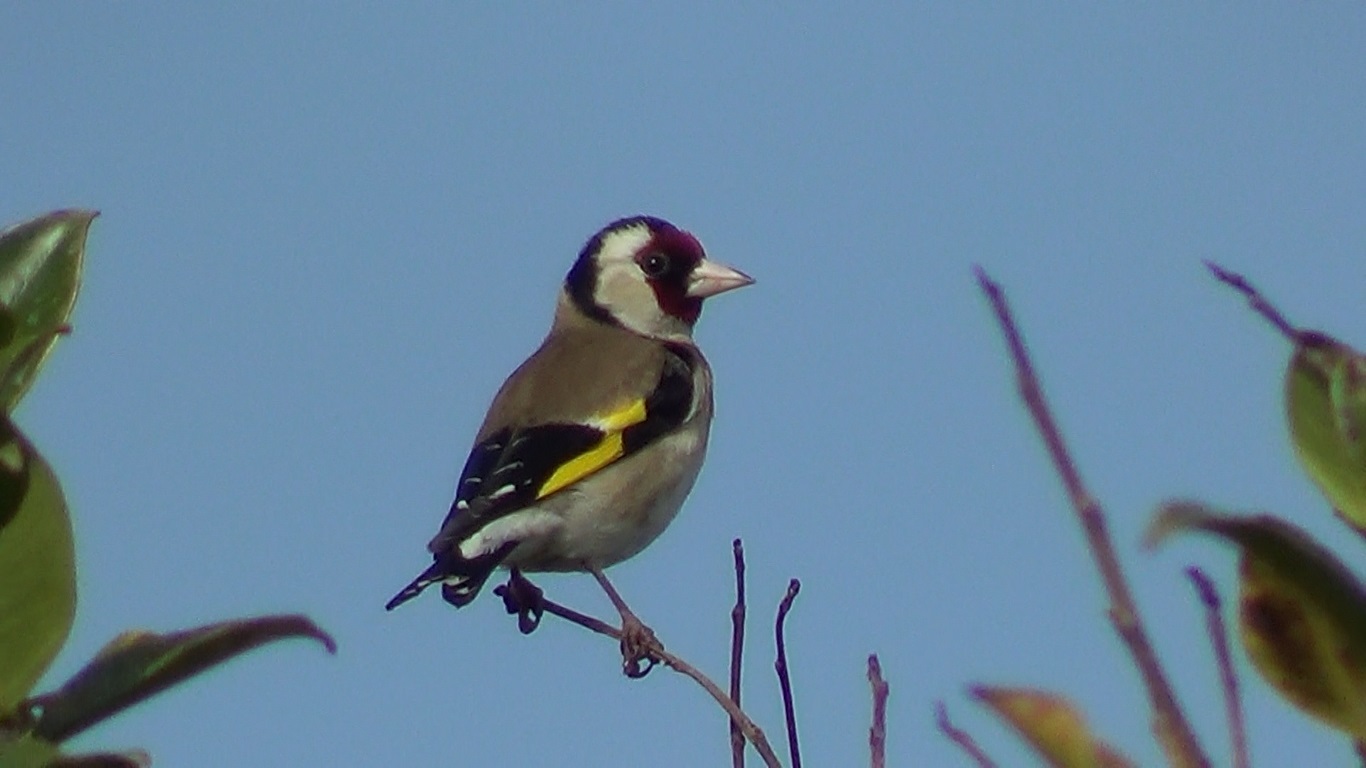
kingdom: Animalia
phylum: Chordata
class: Aves
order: Passeriformes
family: Fringillidae
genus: Carduelis
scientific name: Carduelis carduelis
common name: European goldfinch
